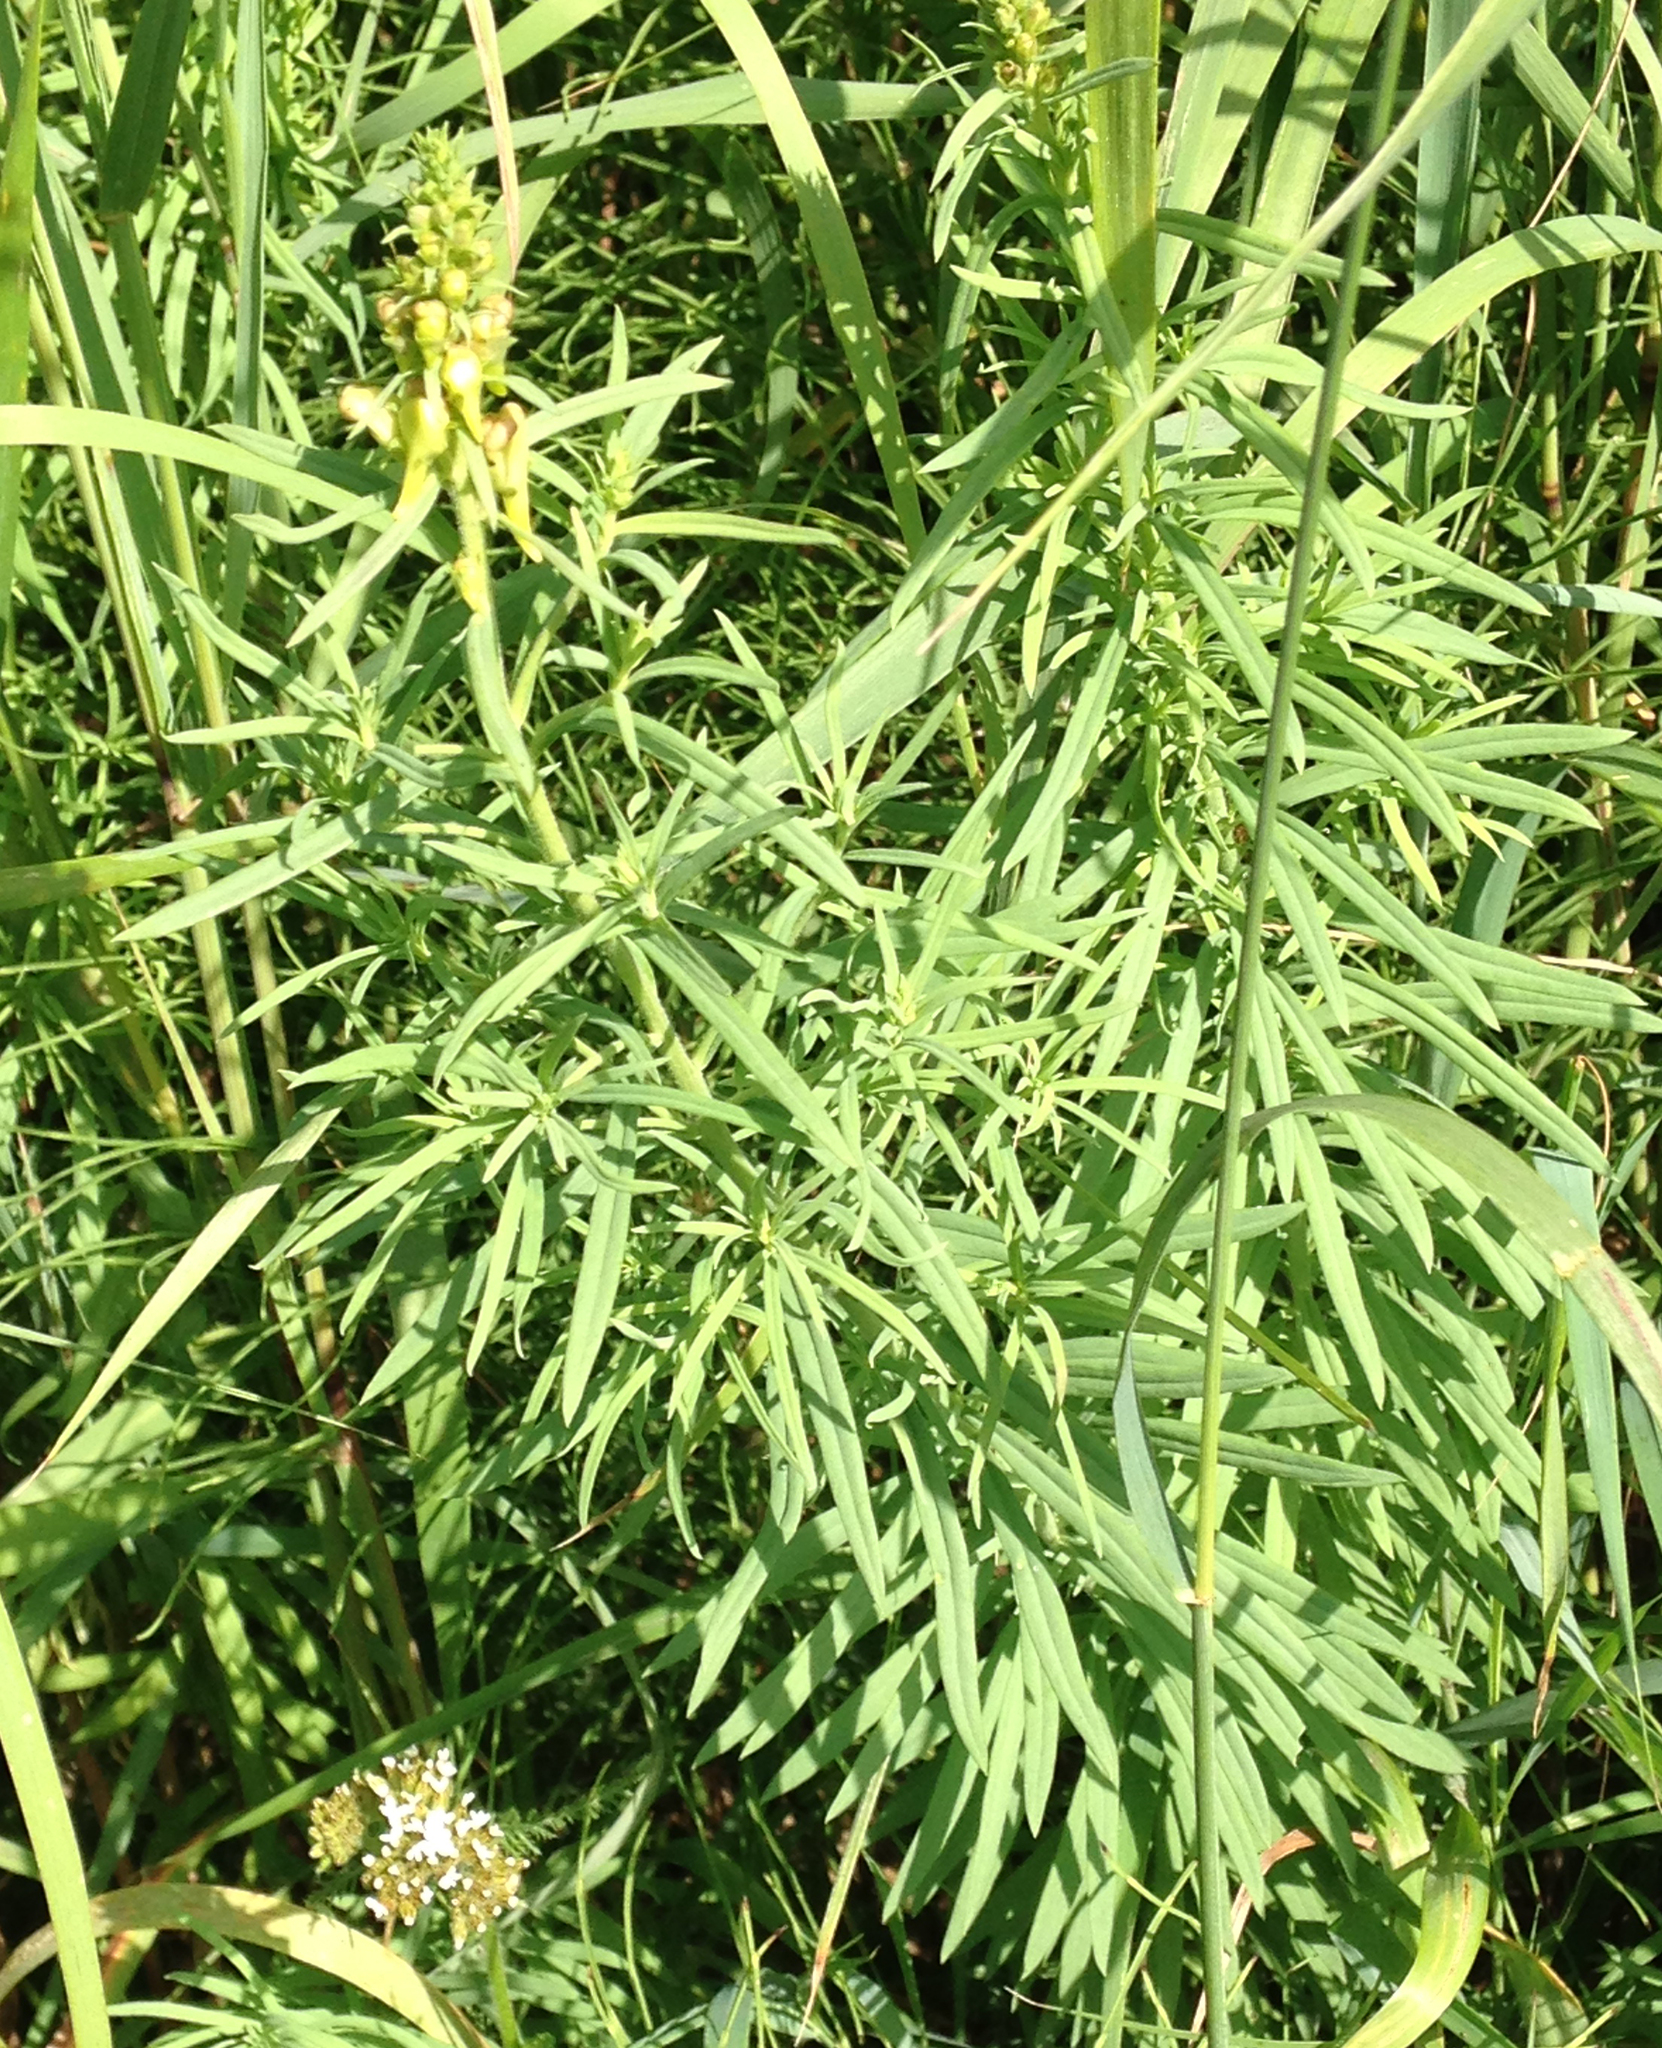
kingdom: Plantae
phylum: Tracheophyta
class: Magnoliopsida
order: Lamiales
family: Plantaginaceae
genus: Linaria
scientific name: Linaria vulgaris
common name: Butter and eggs
